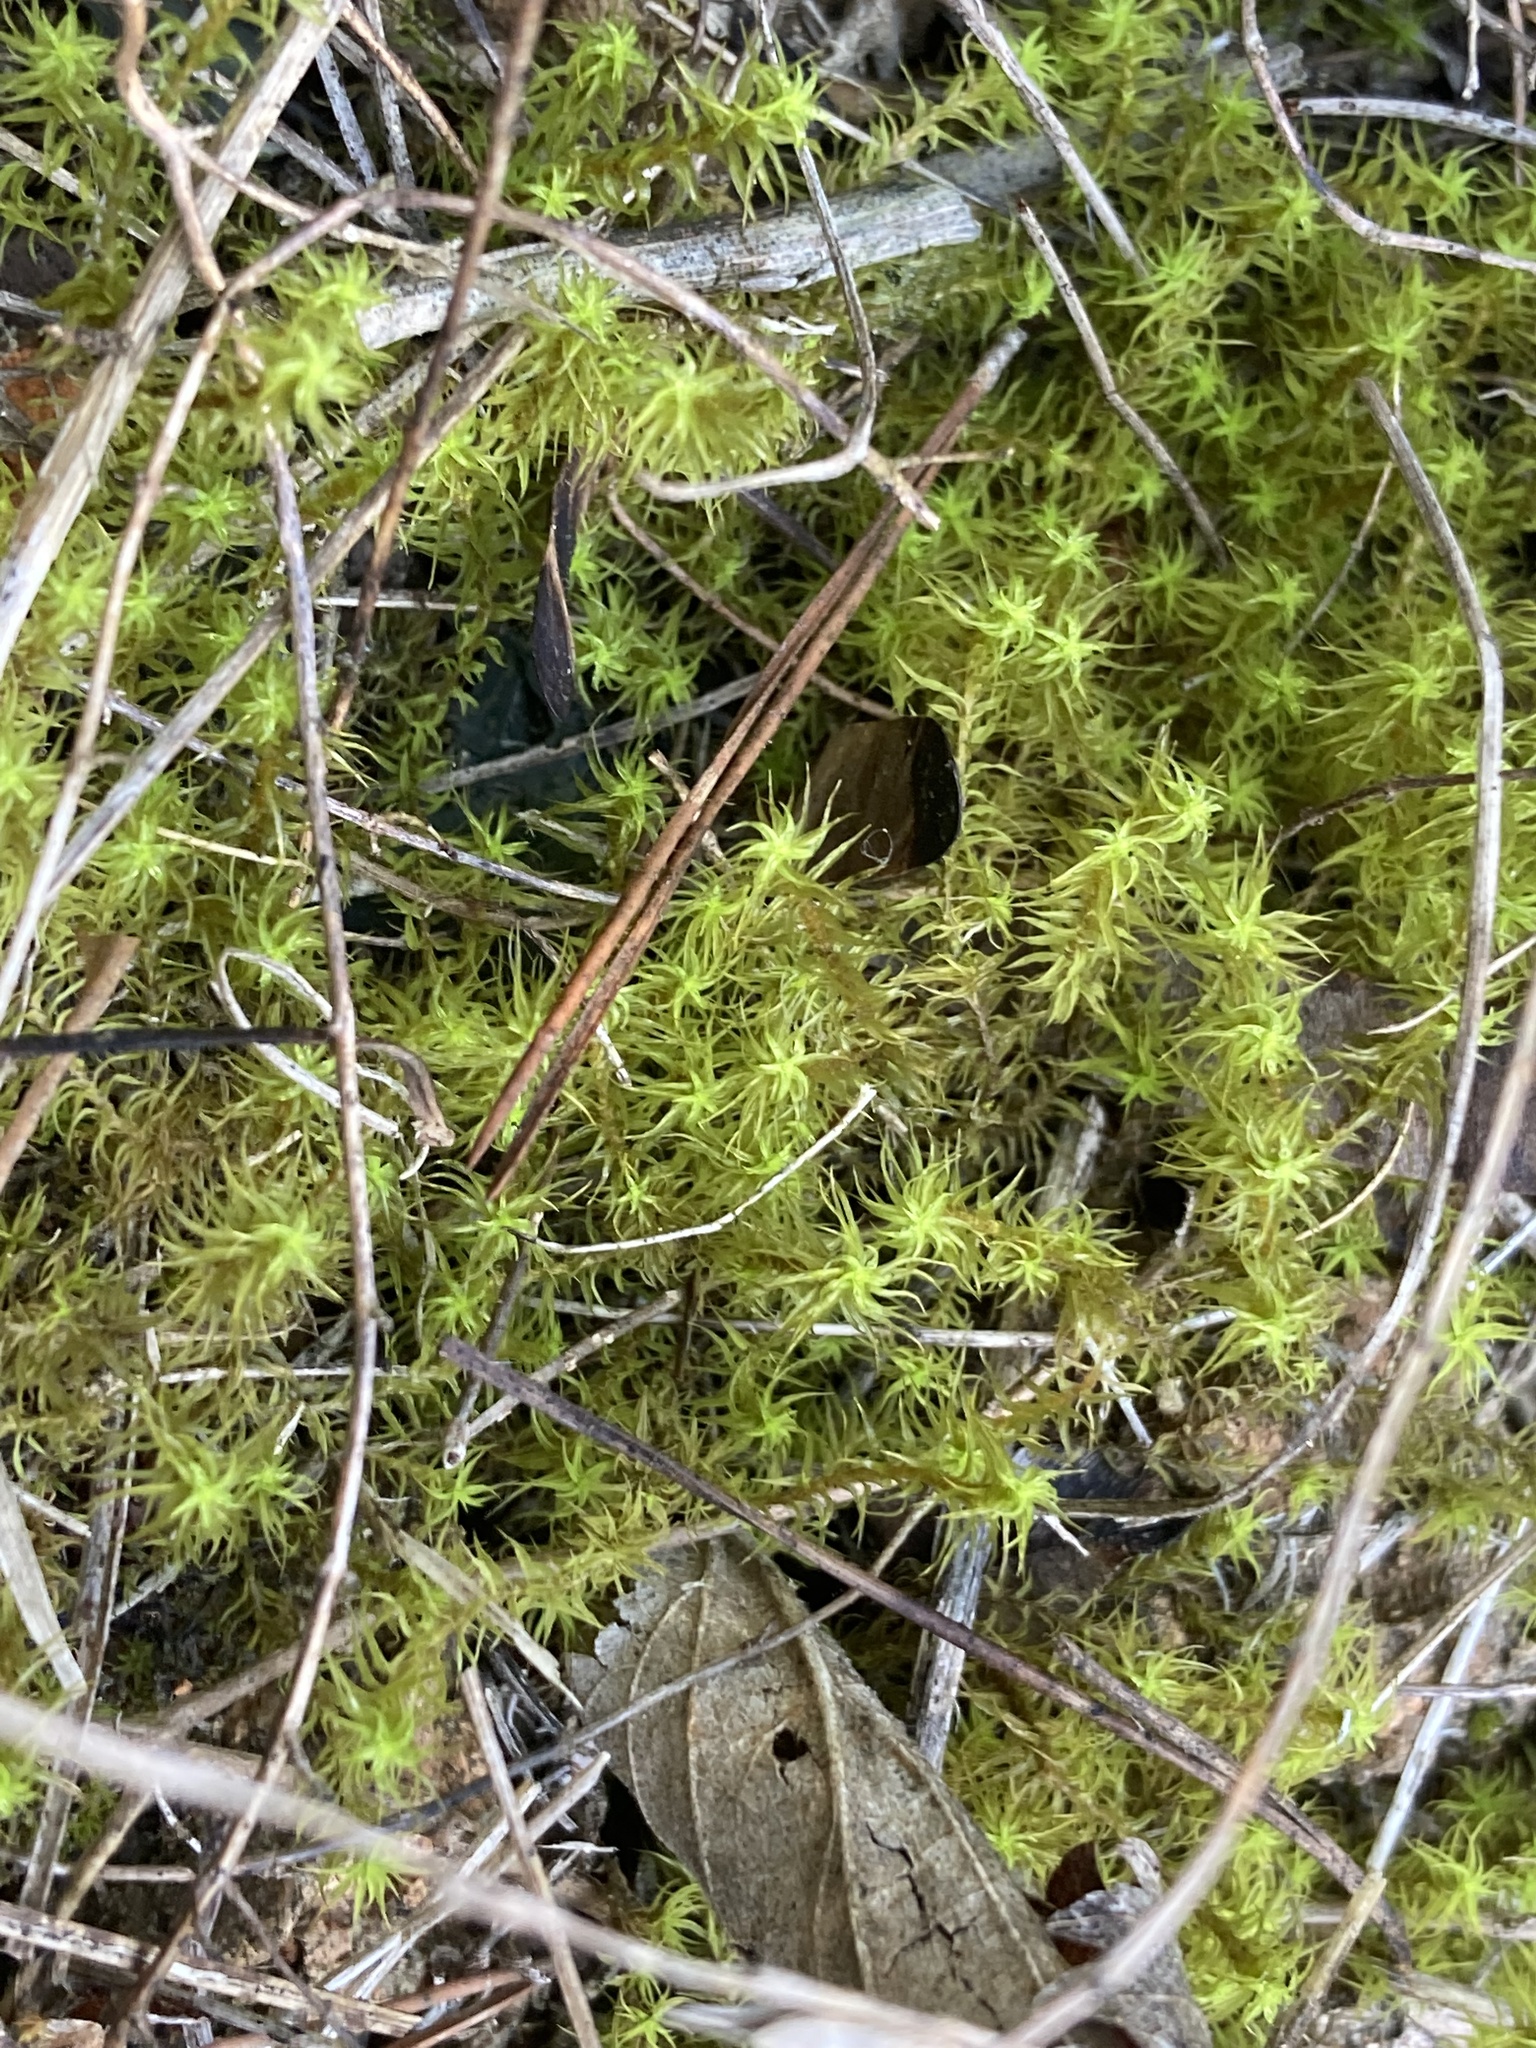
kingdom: Plantae
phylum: Bryophyta
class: Bryopsida
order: Pottiales
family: Pottiaceae
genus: Pleurochaete
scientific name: Pleurochaete squarrosa
